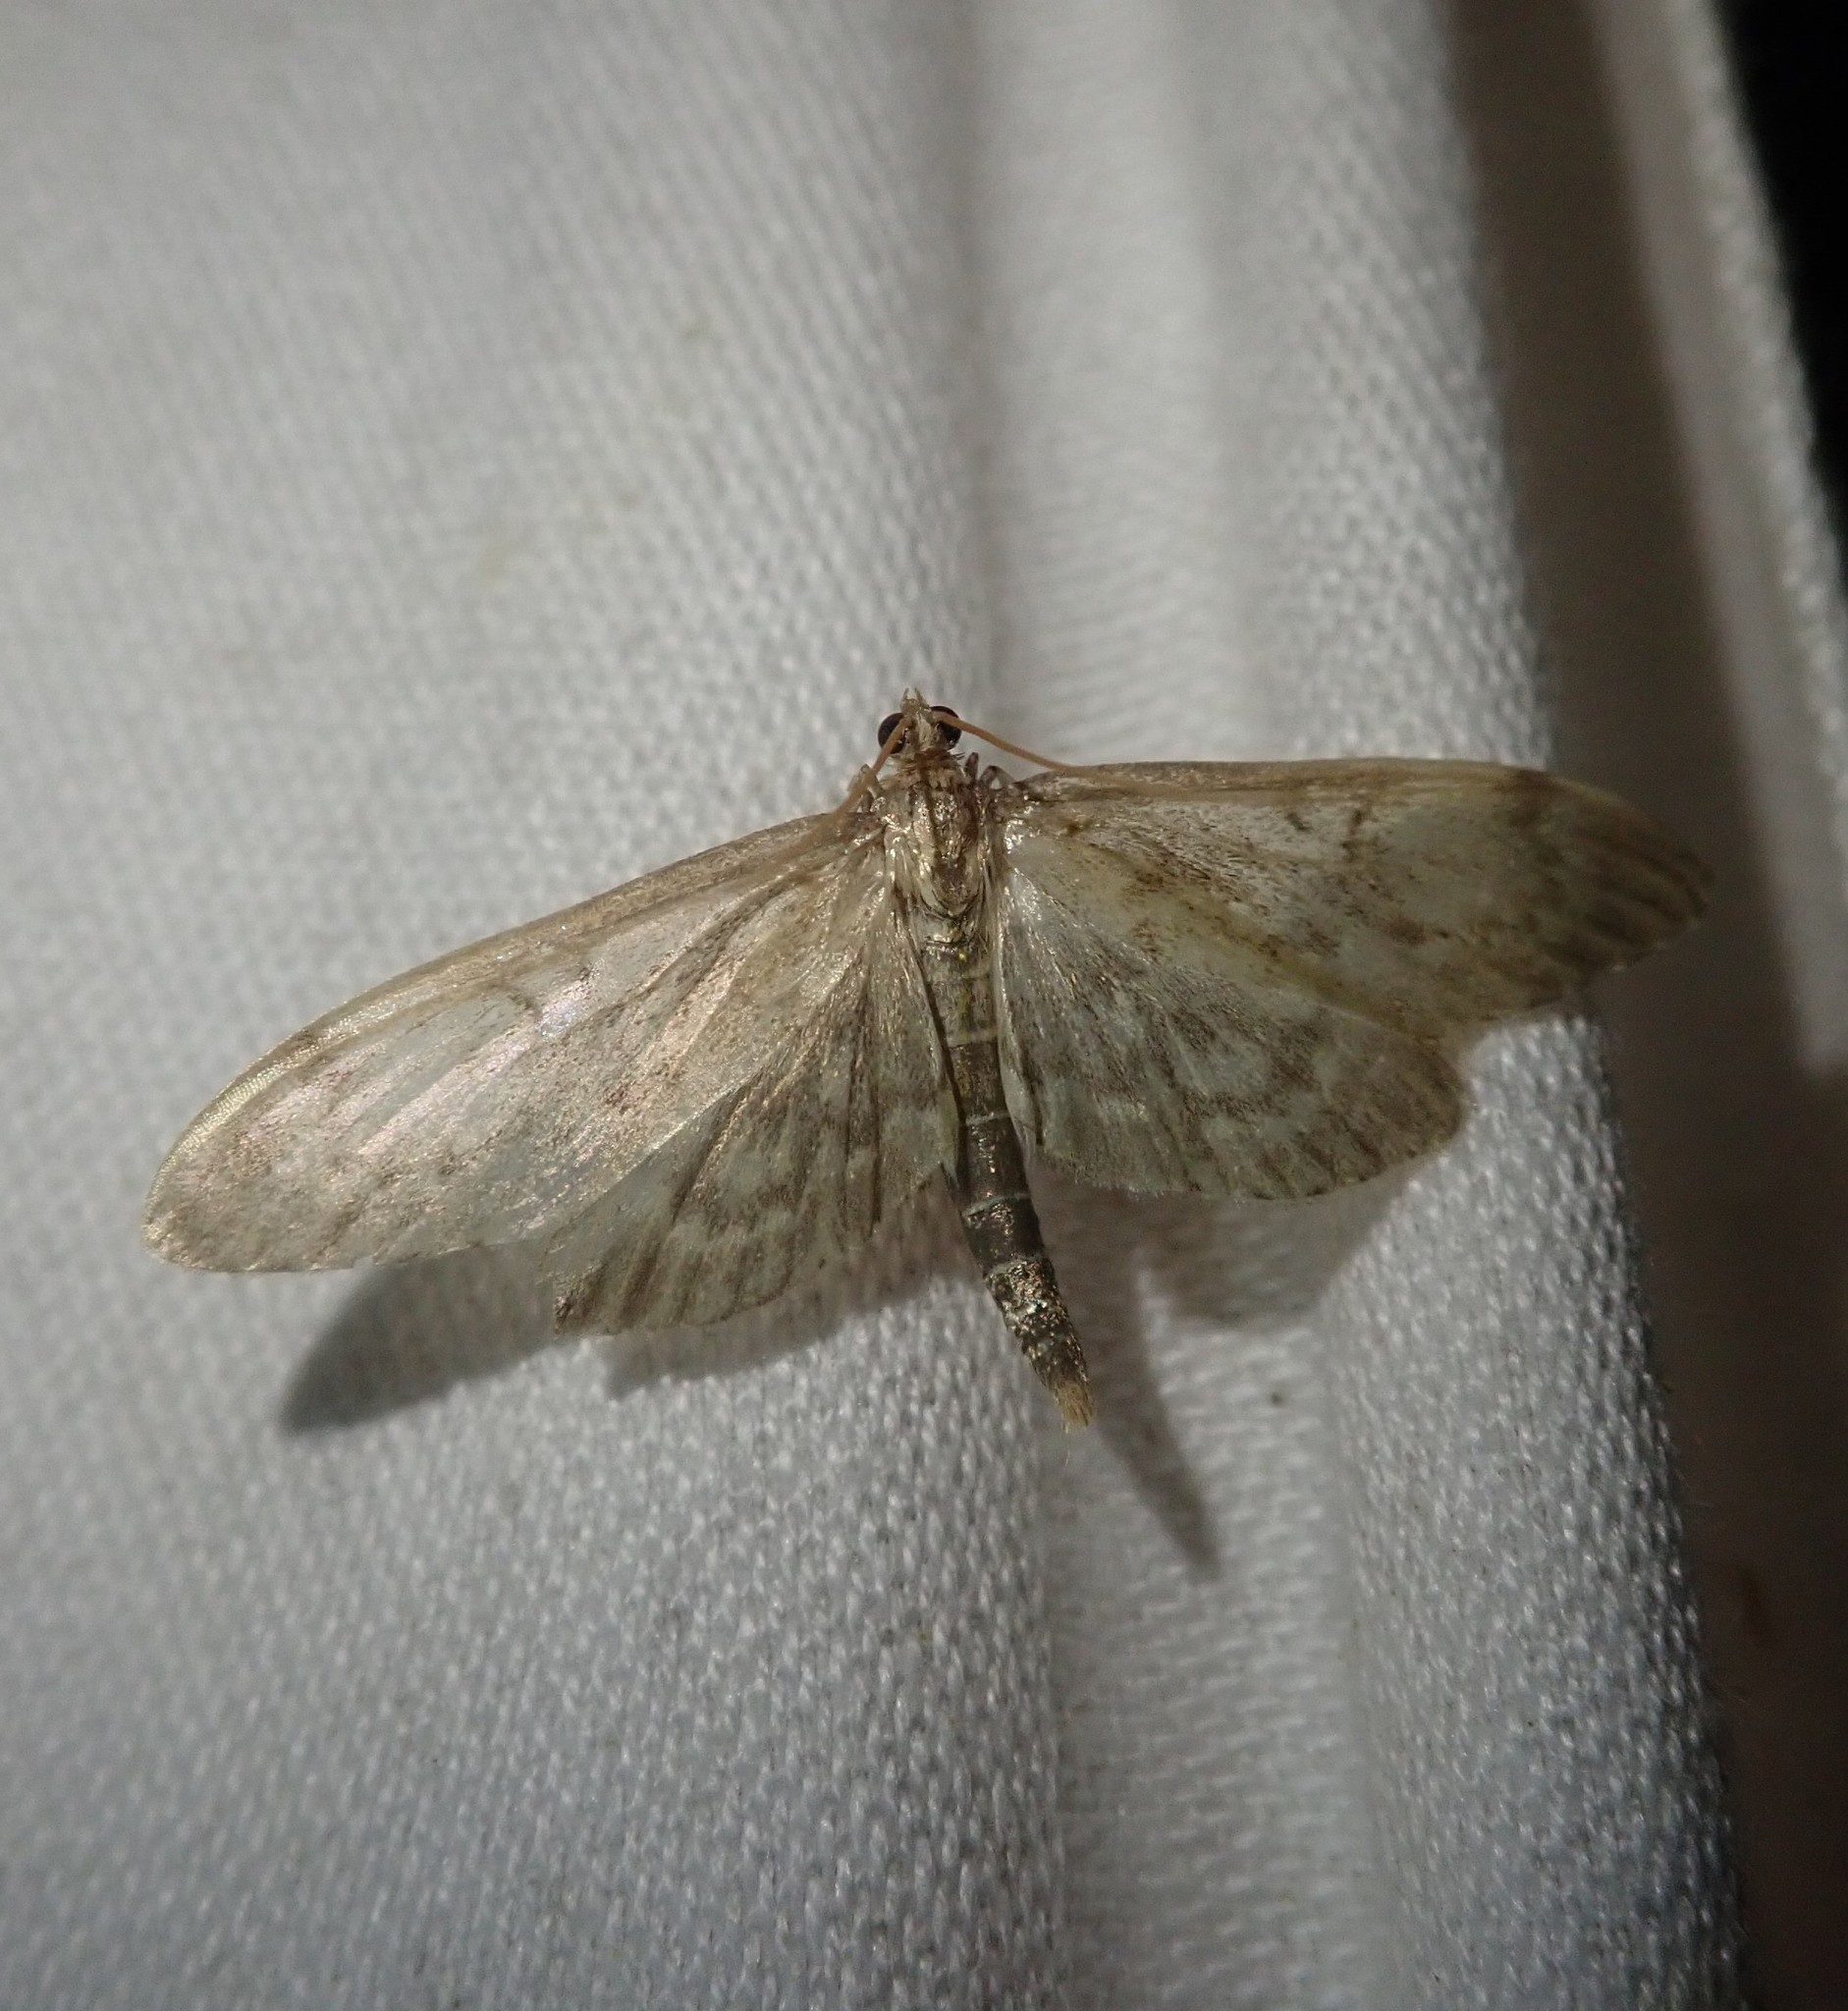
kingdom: Animalia
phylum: Arthropoda
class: Insecta
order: Lepidoptera
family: Crambidae
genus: Anania
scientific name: Anania lancealis
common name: Long-winged pearl
